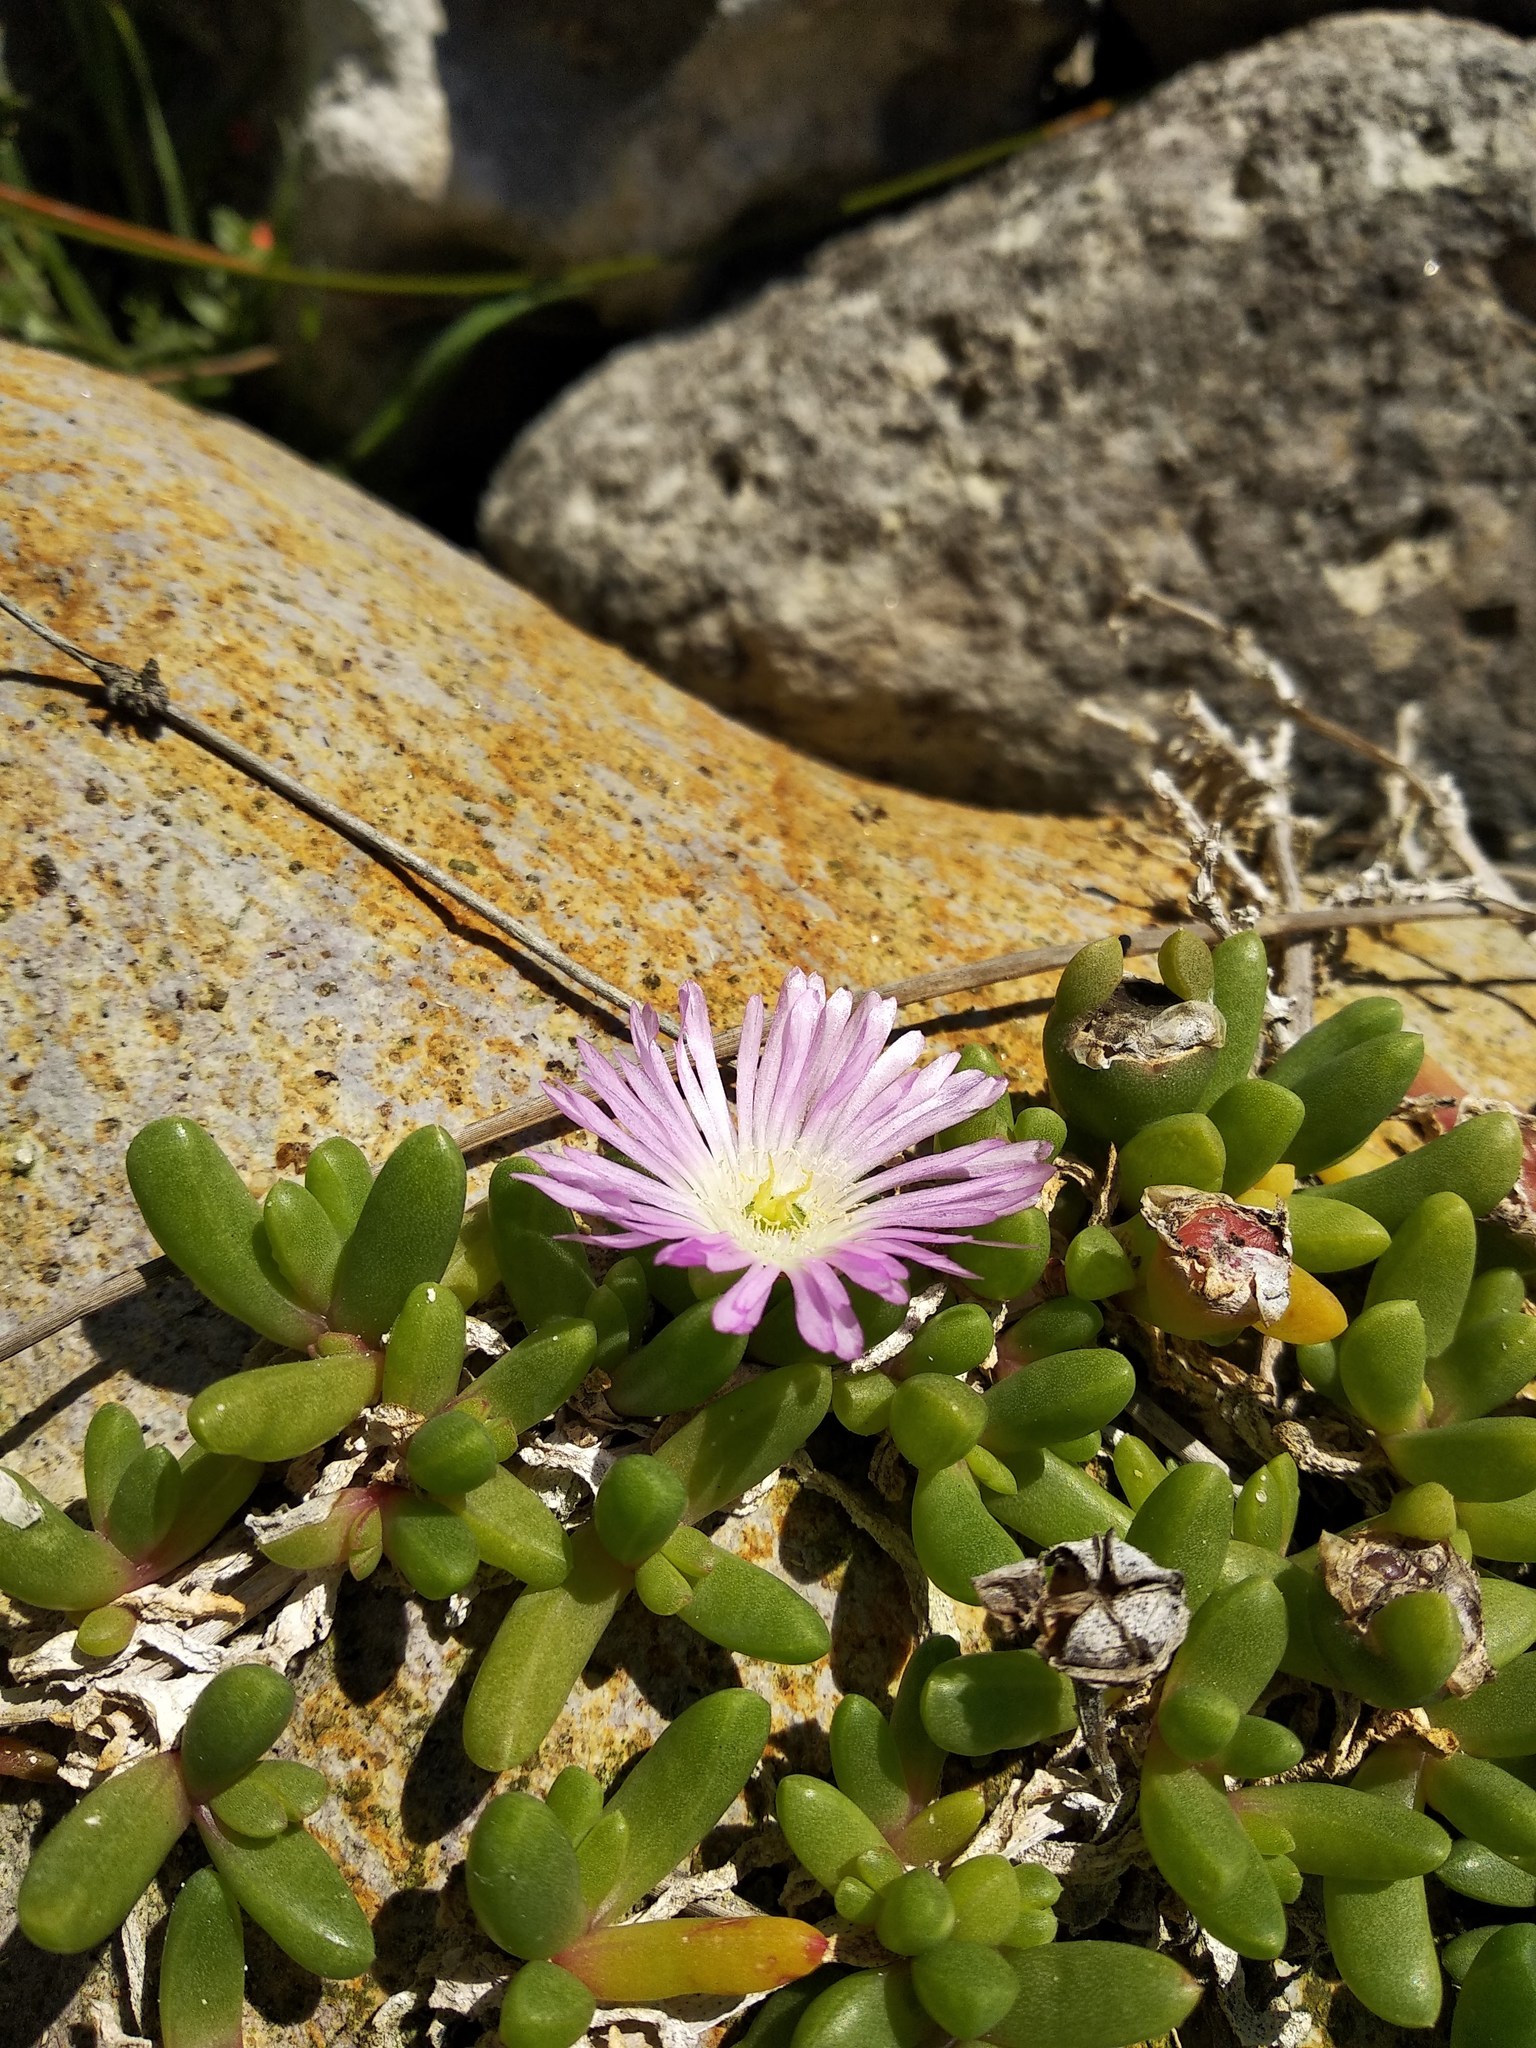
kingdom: Plantae
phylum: Tracheophyta
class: Magnoliopsida
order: Caryophyllales
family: Aizoaceae
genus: Disphyma
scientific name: Disphyma australe
